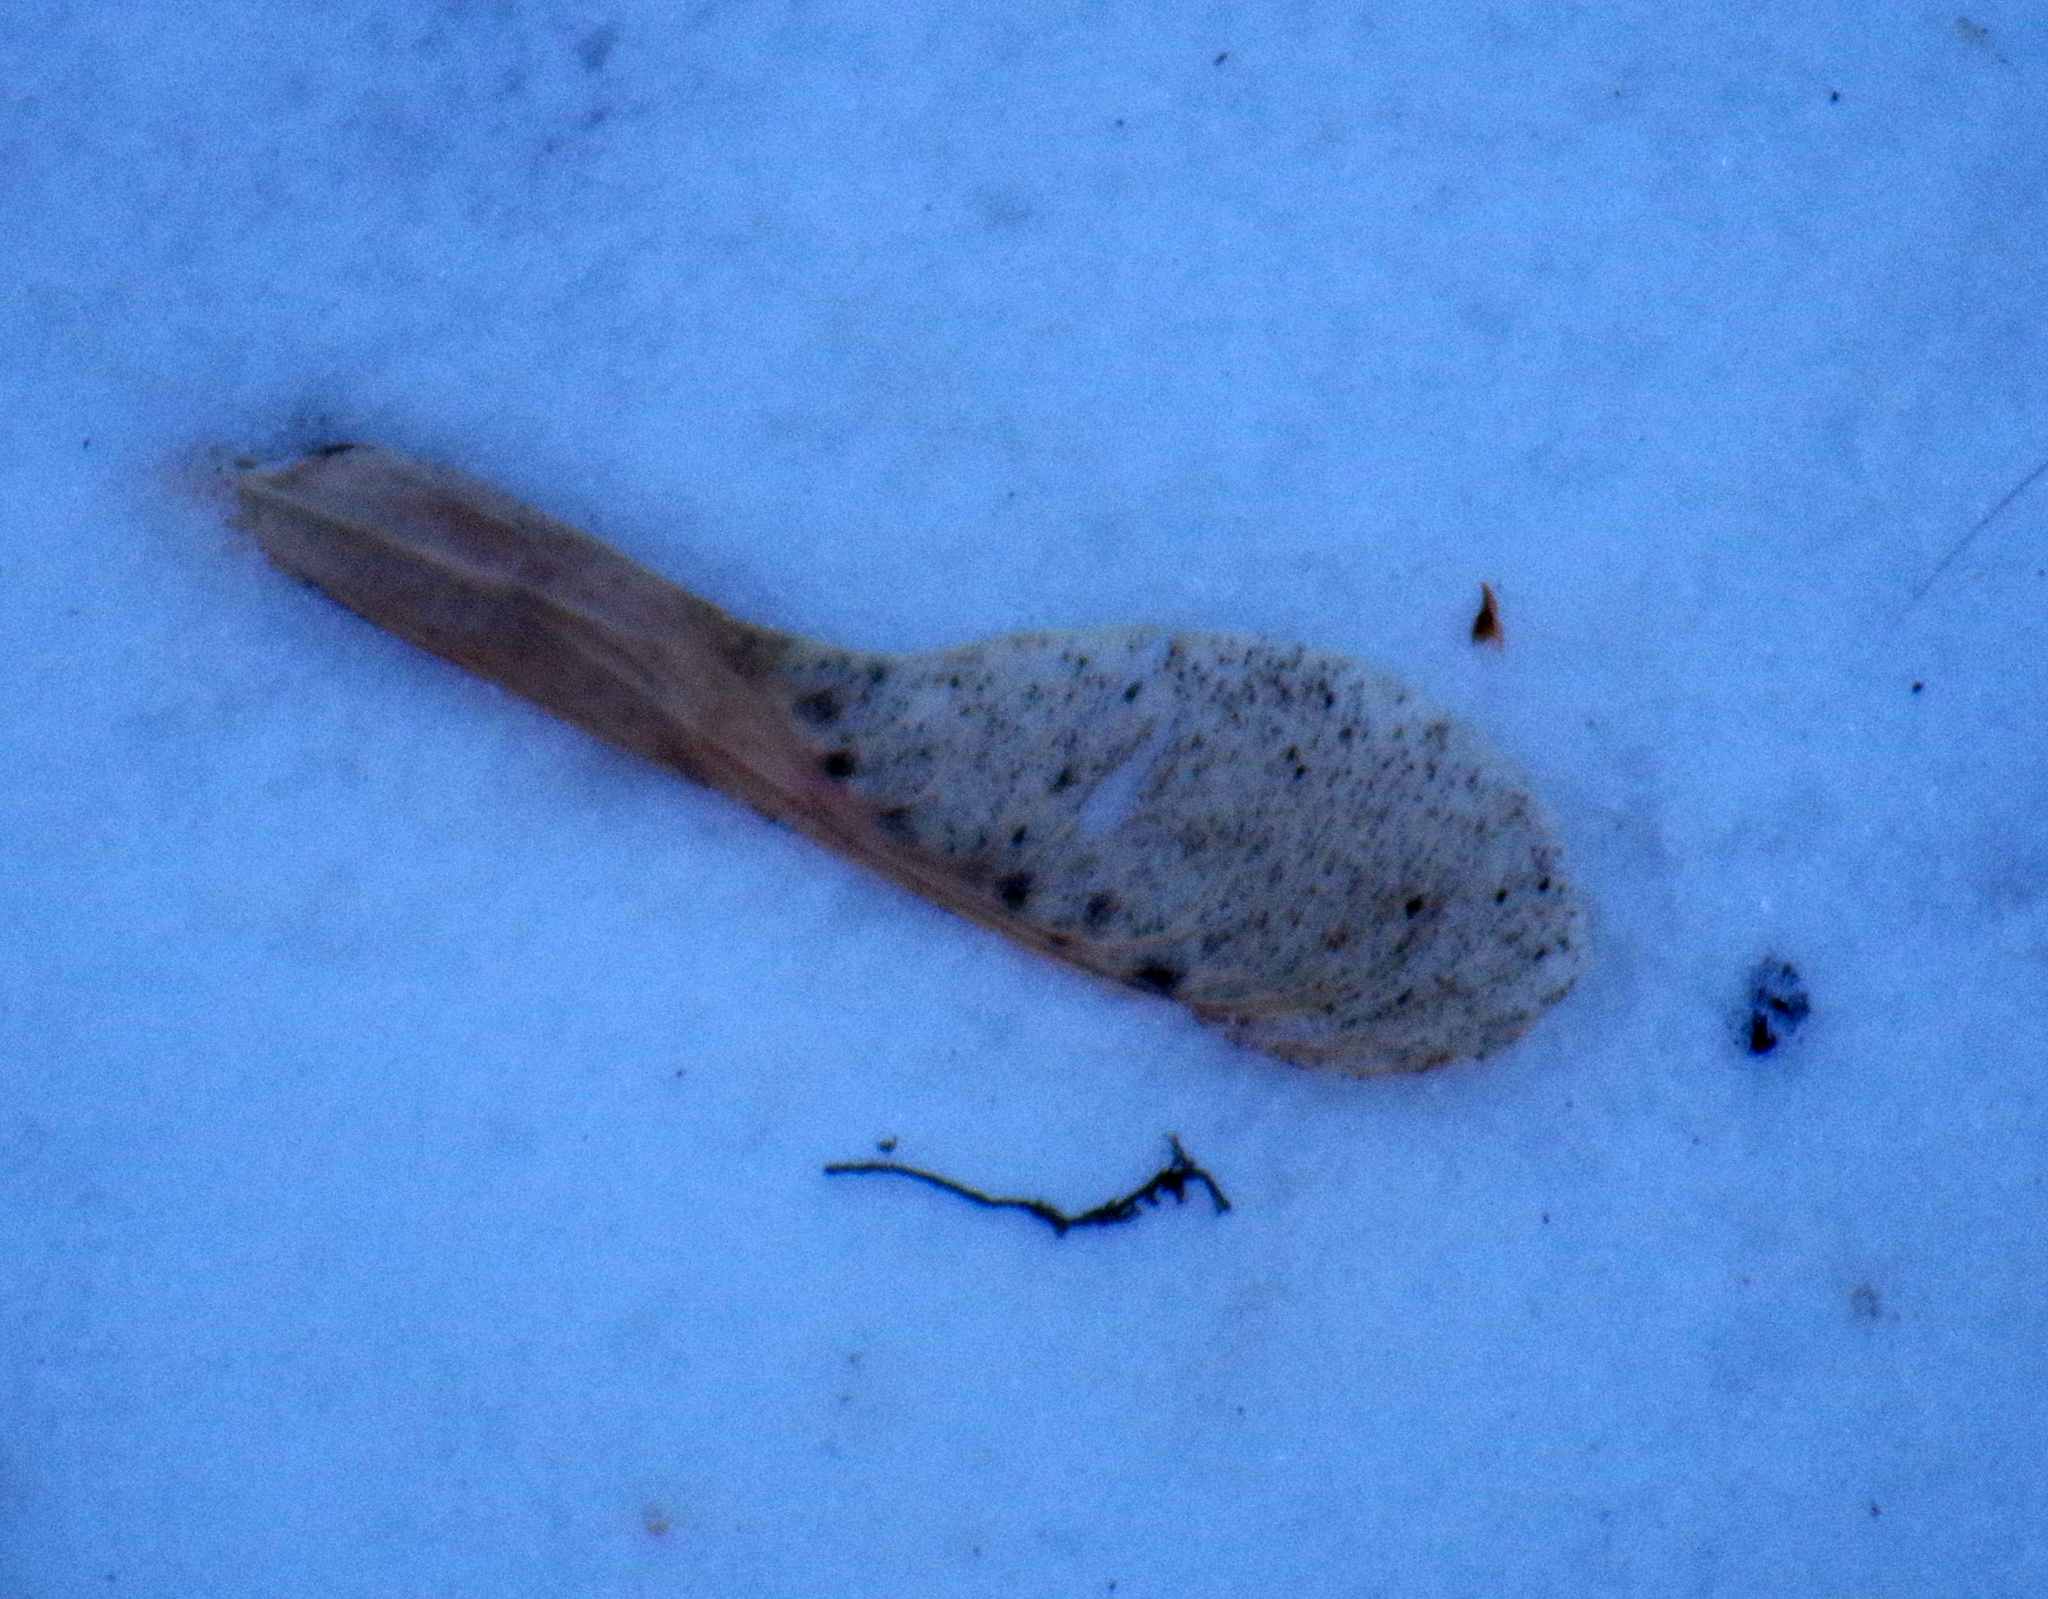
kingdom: Plantae
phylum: Tracheophyta
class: Magnoliopsida
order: Sapindales
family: Sapindaceae
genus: Acer
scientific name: Acer negundo
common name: Ashleaf maple
